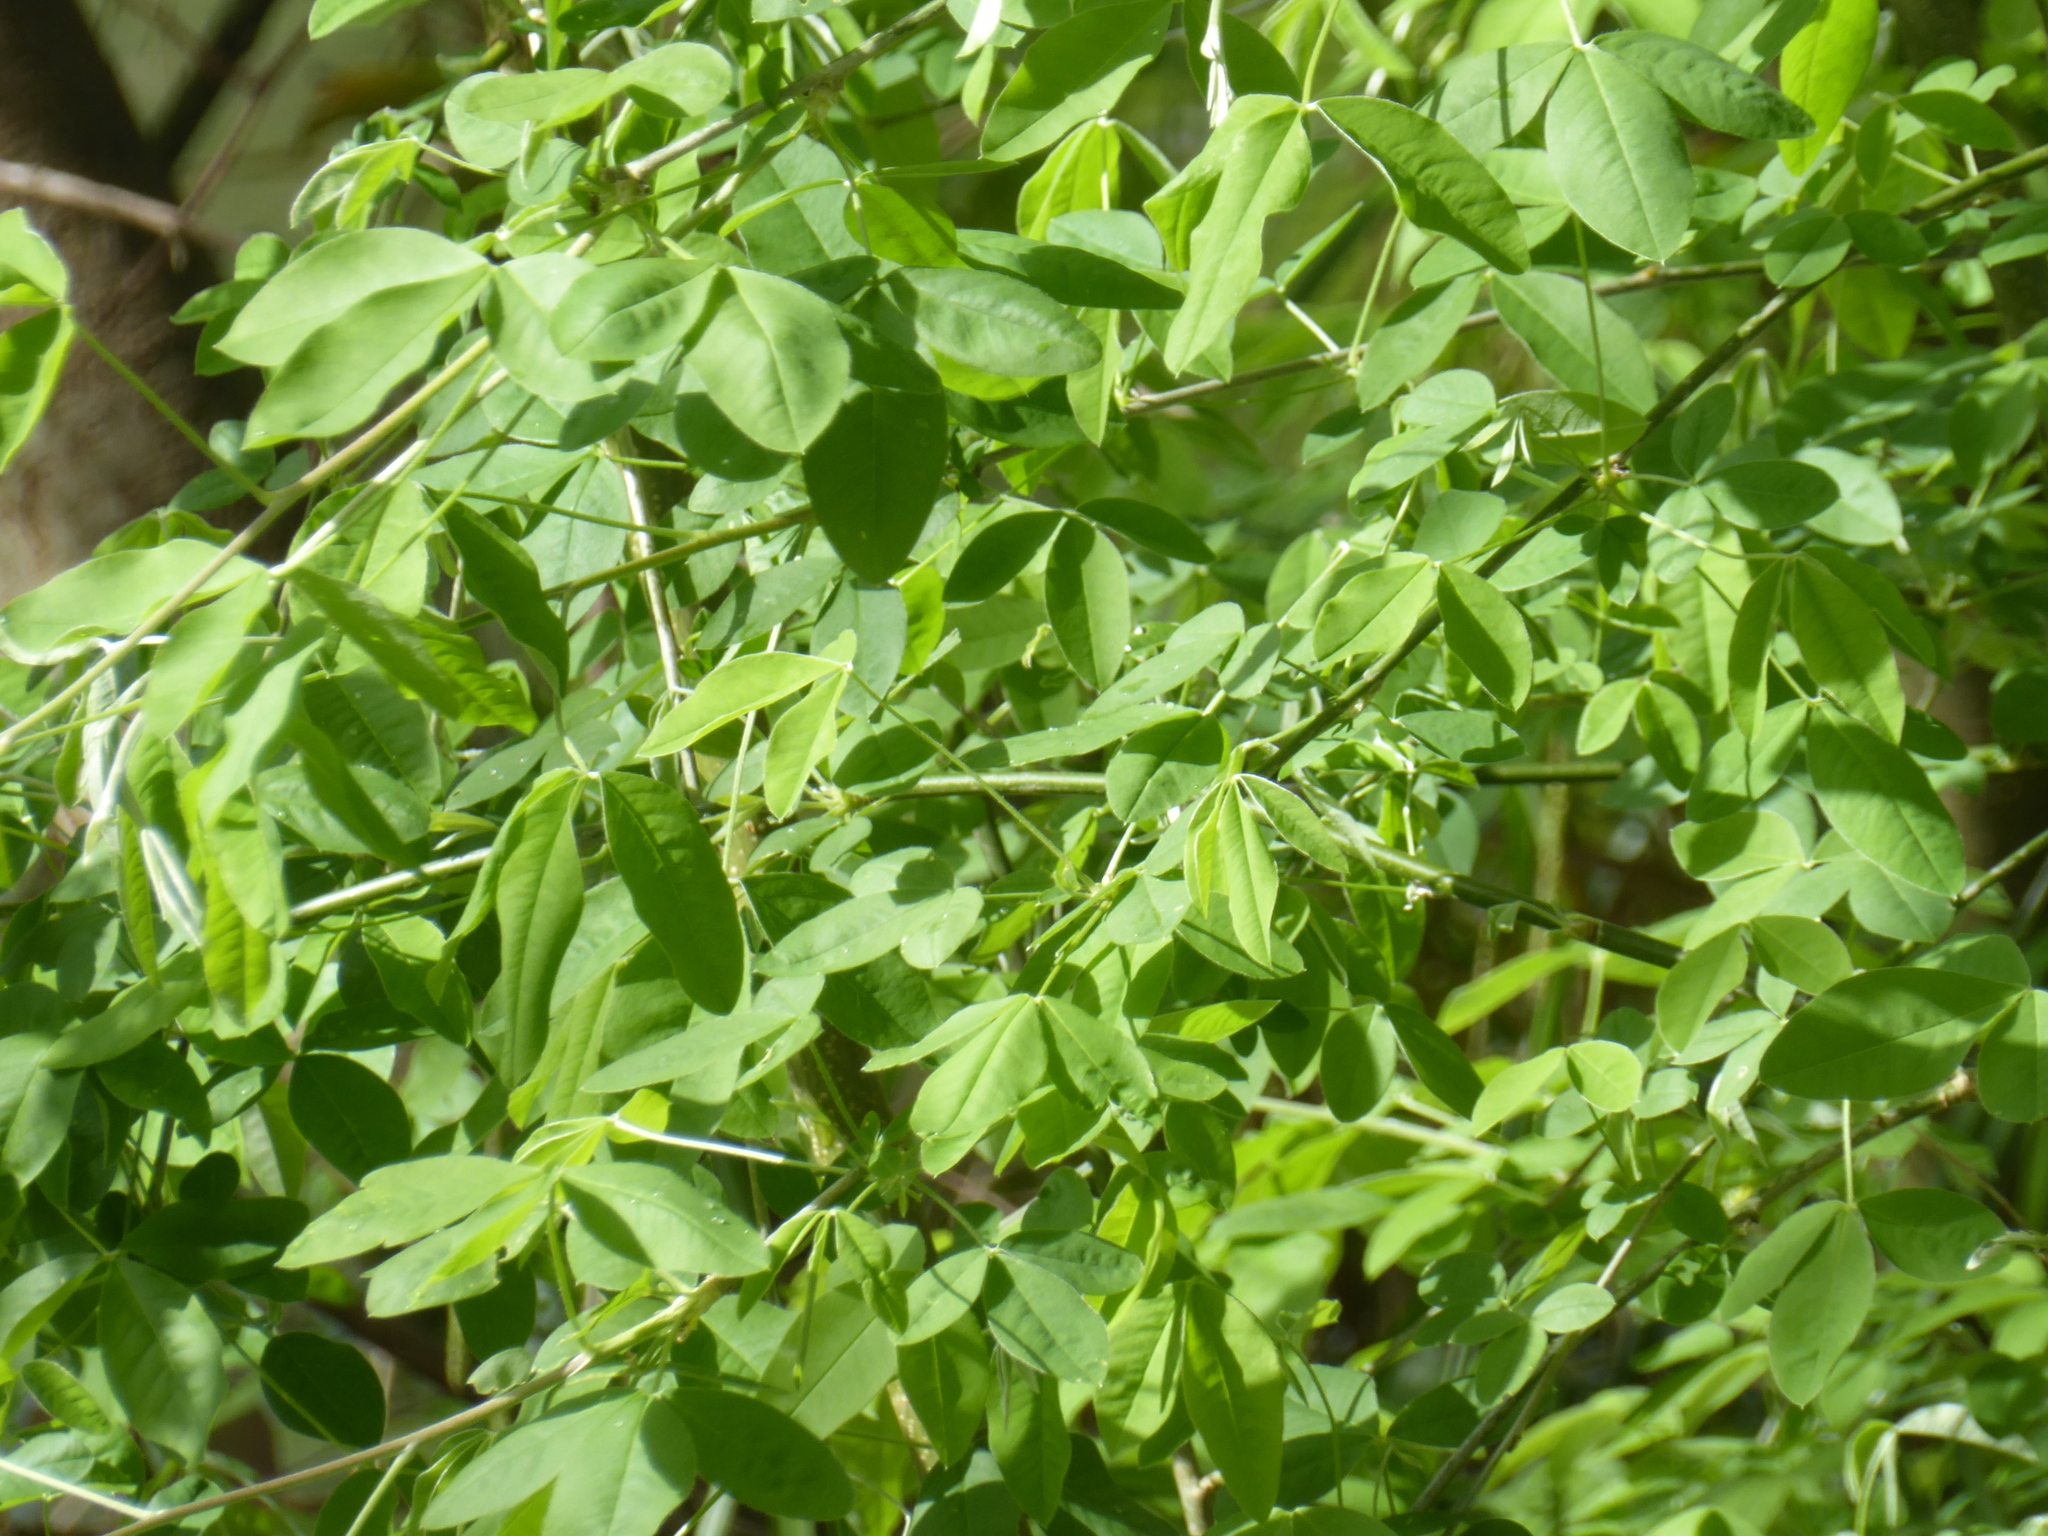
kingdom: Plantae
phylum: Tracheophyta
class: Magnoliopsida
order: Fabales
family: Fabaceae
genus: Laburnum
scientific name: Laburnum anagyroides
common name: Laburnum
